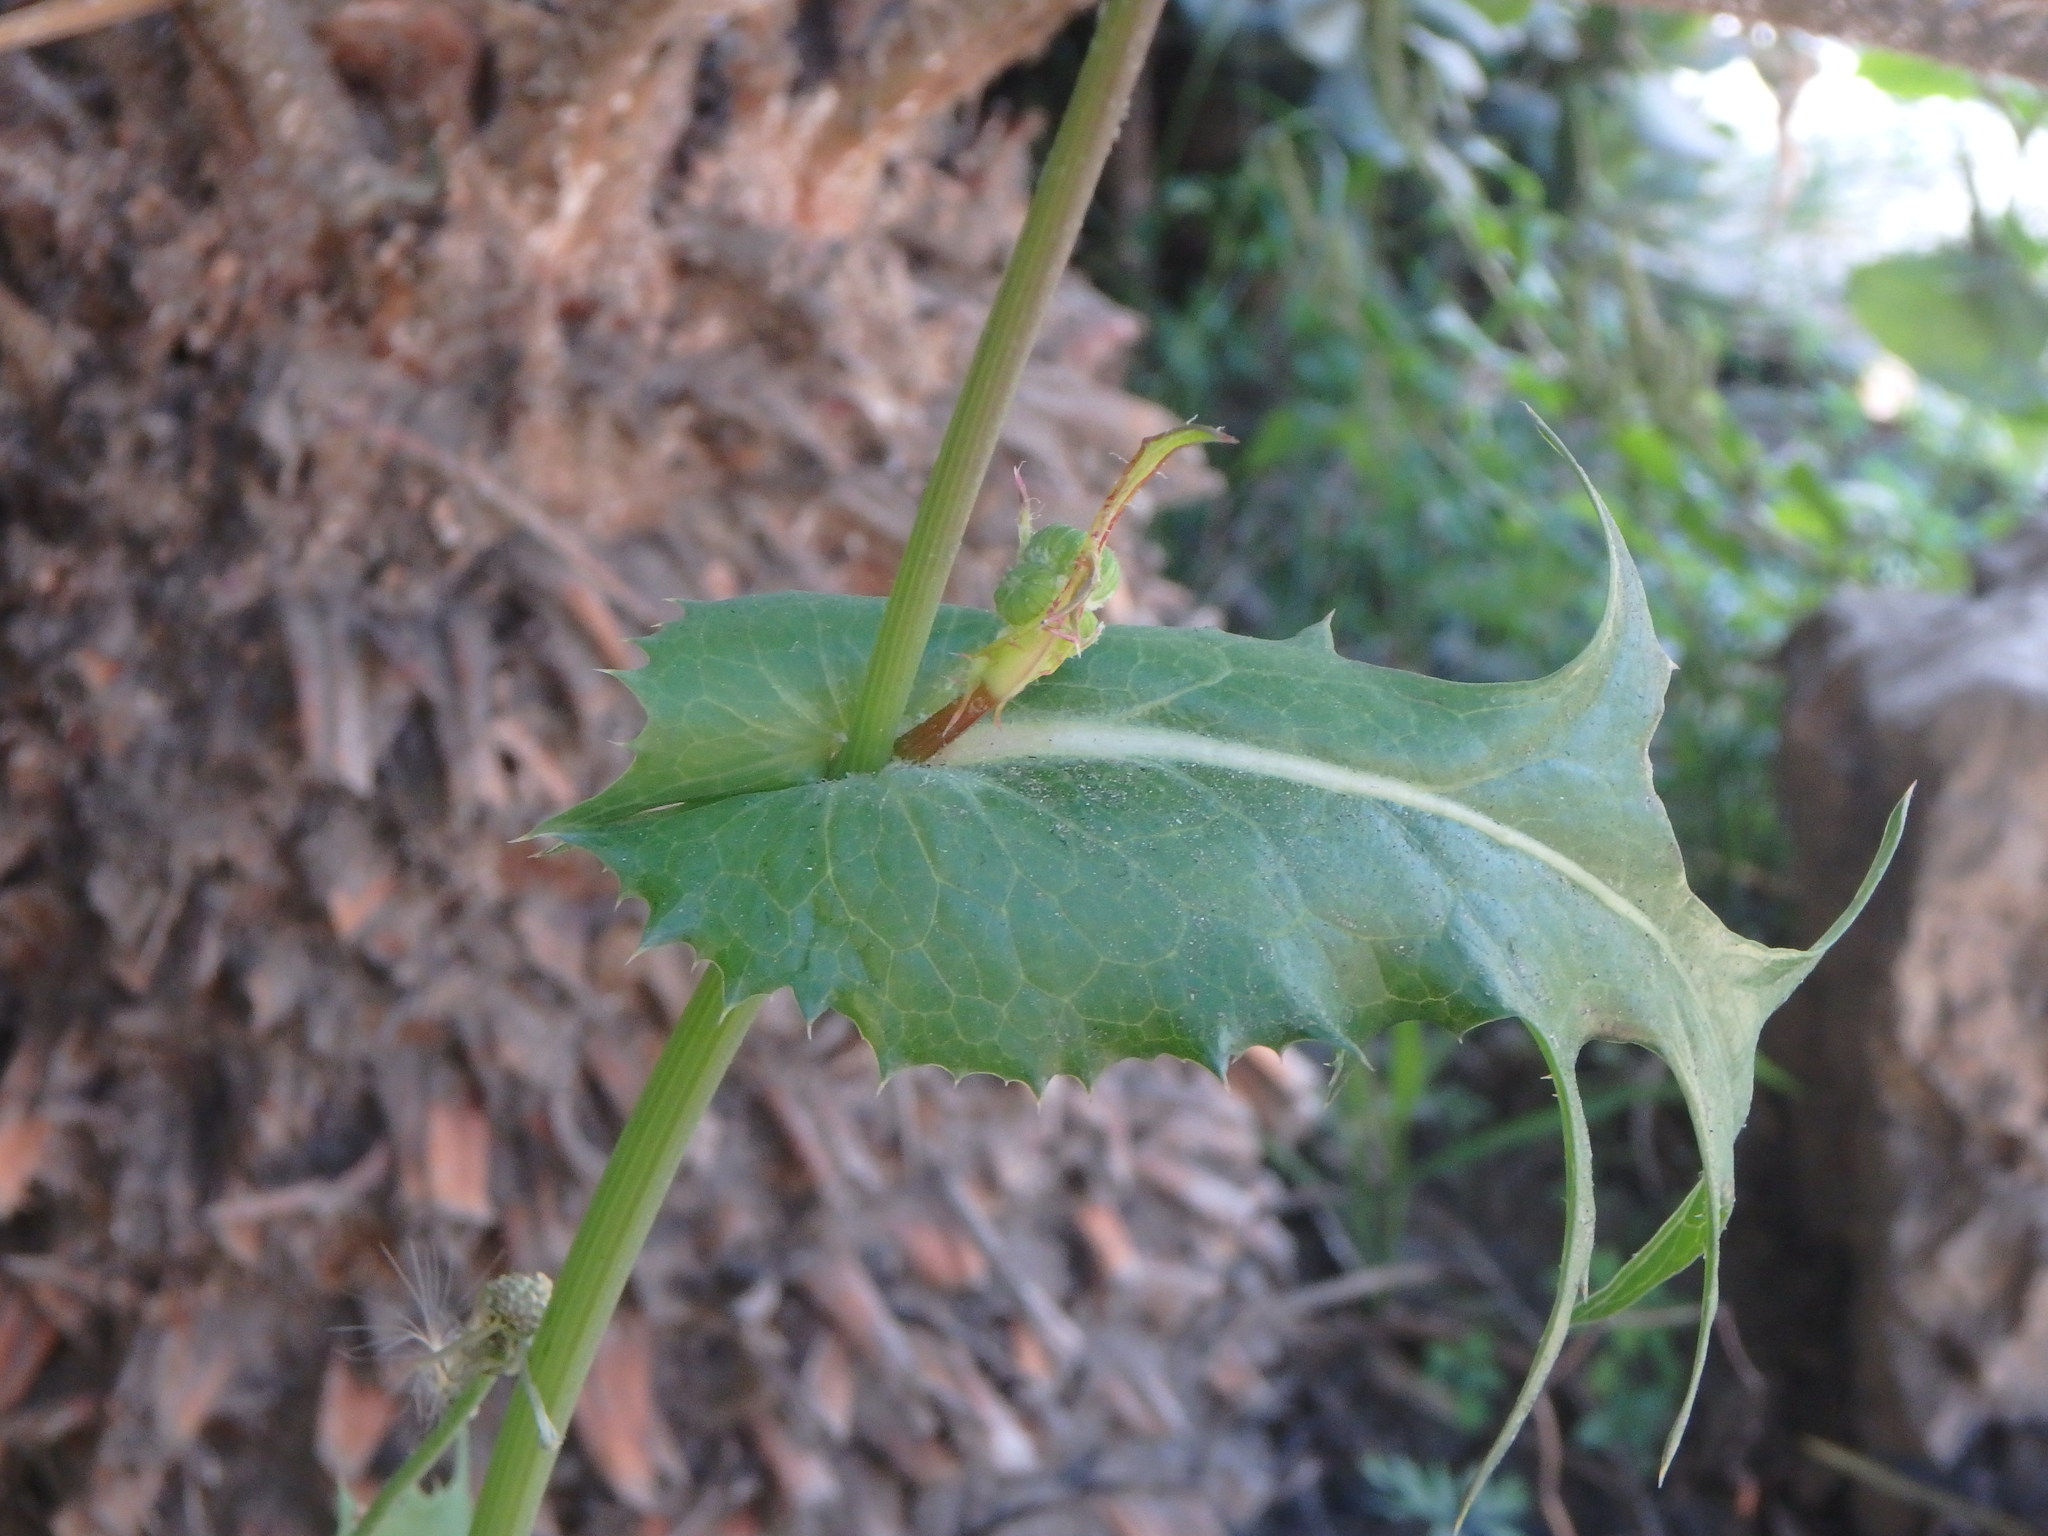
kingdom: Plantae
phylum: Tracheophyta
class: Magnoliopsida
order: Asterales
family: Asteraceae
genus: Sonchus
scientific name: Sonchus oleraceus
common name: Common sowthistle
